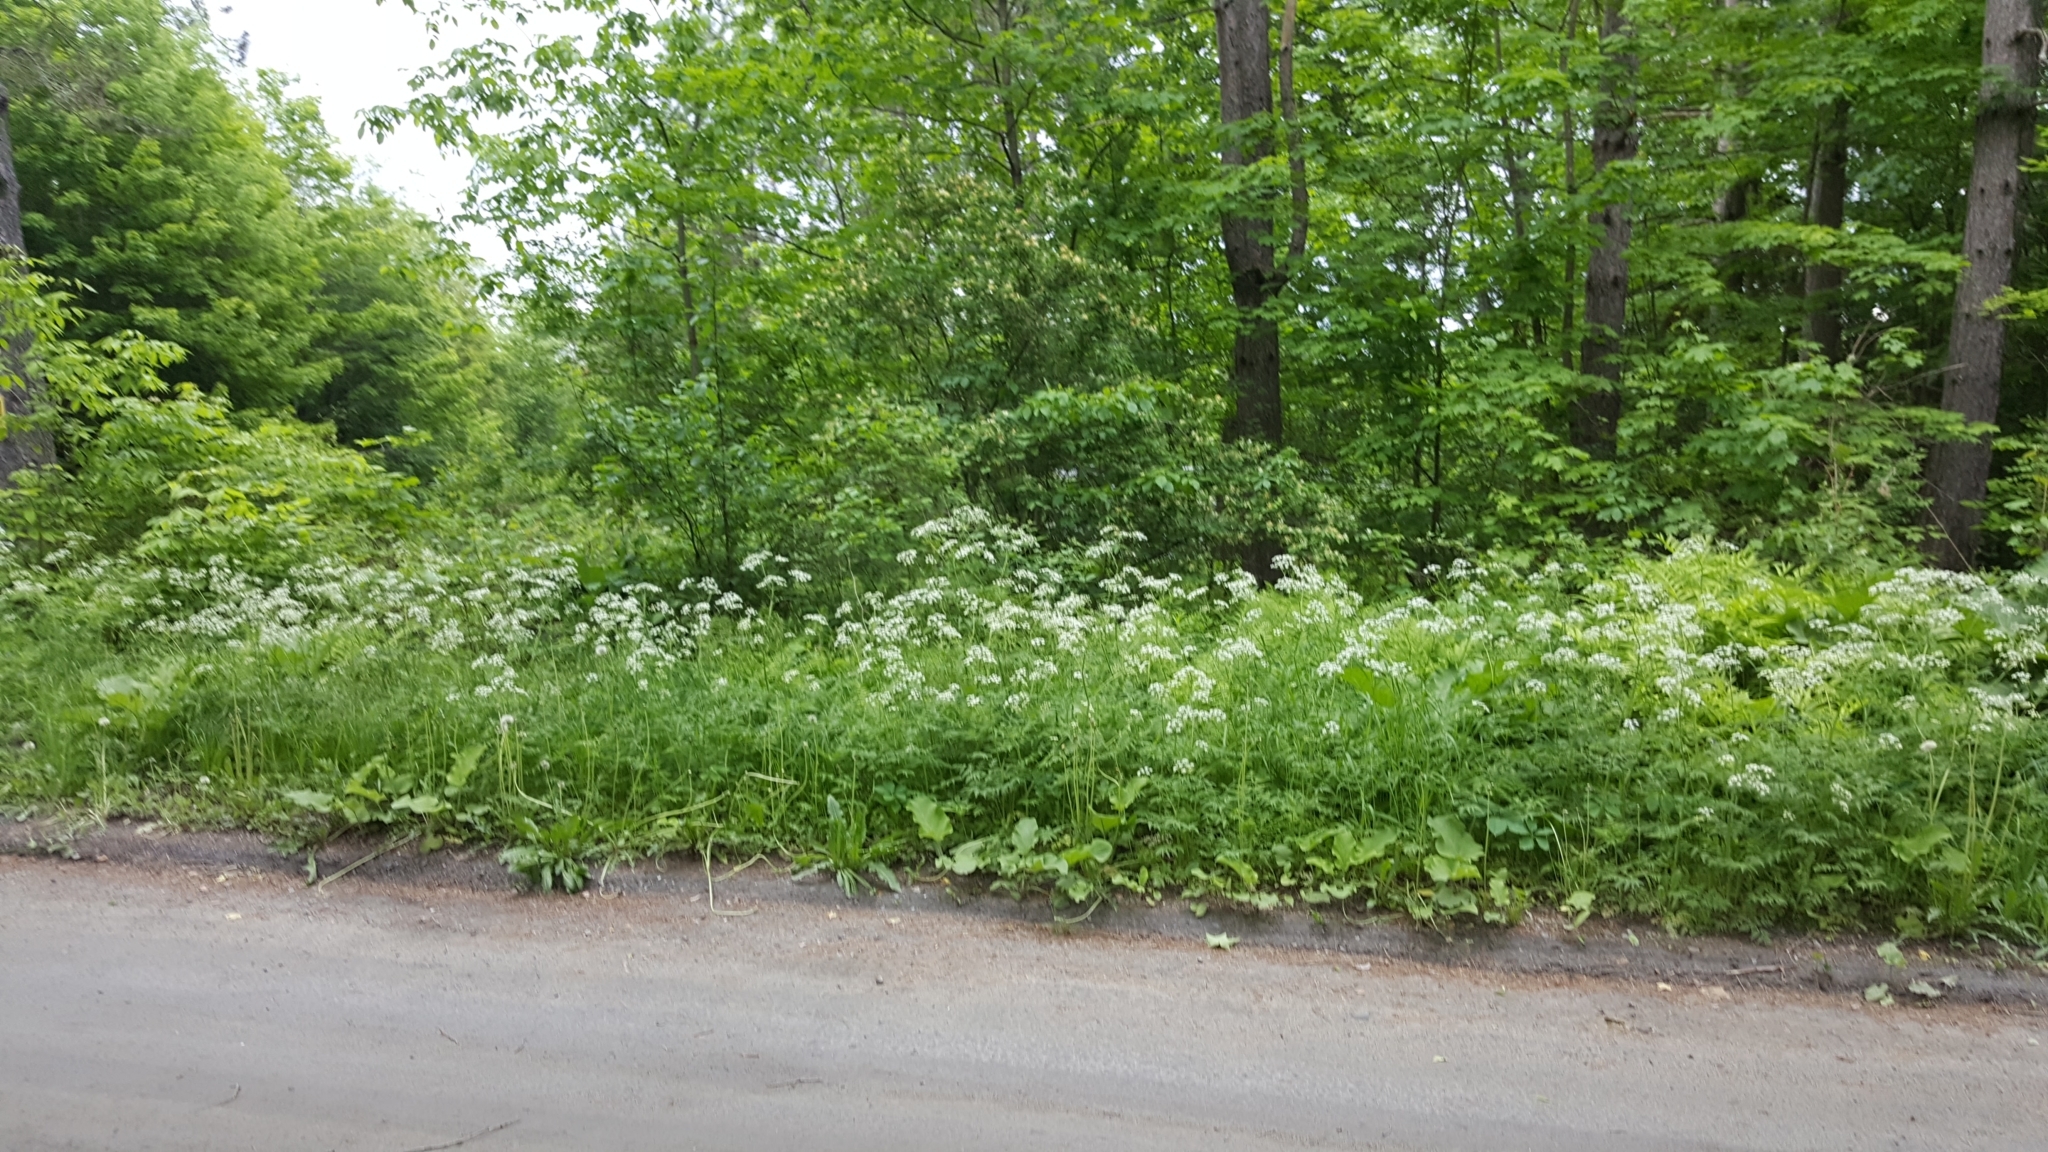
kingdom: Plantae
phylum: Tracheophyta
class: Magnoliopsida
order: Apiales
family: Apiaceae
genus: Anthriscus
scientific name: Anthriscus sylvestris
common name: Cow parsley
